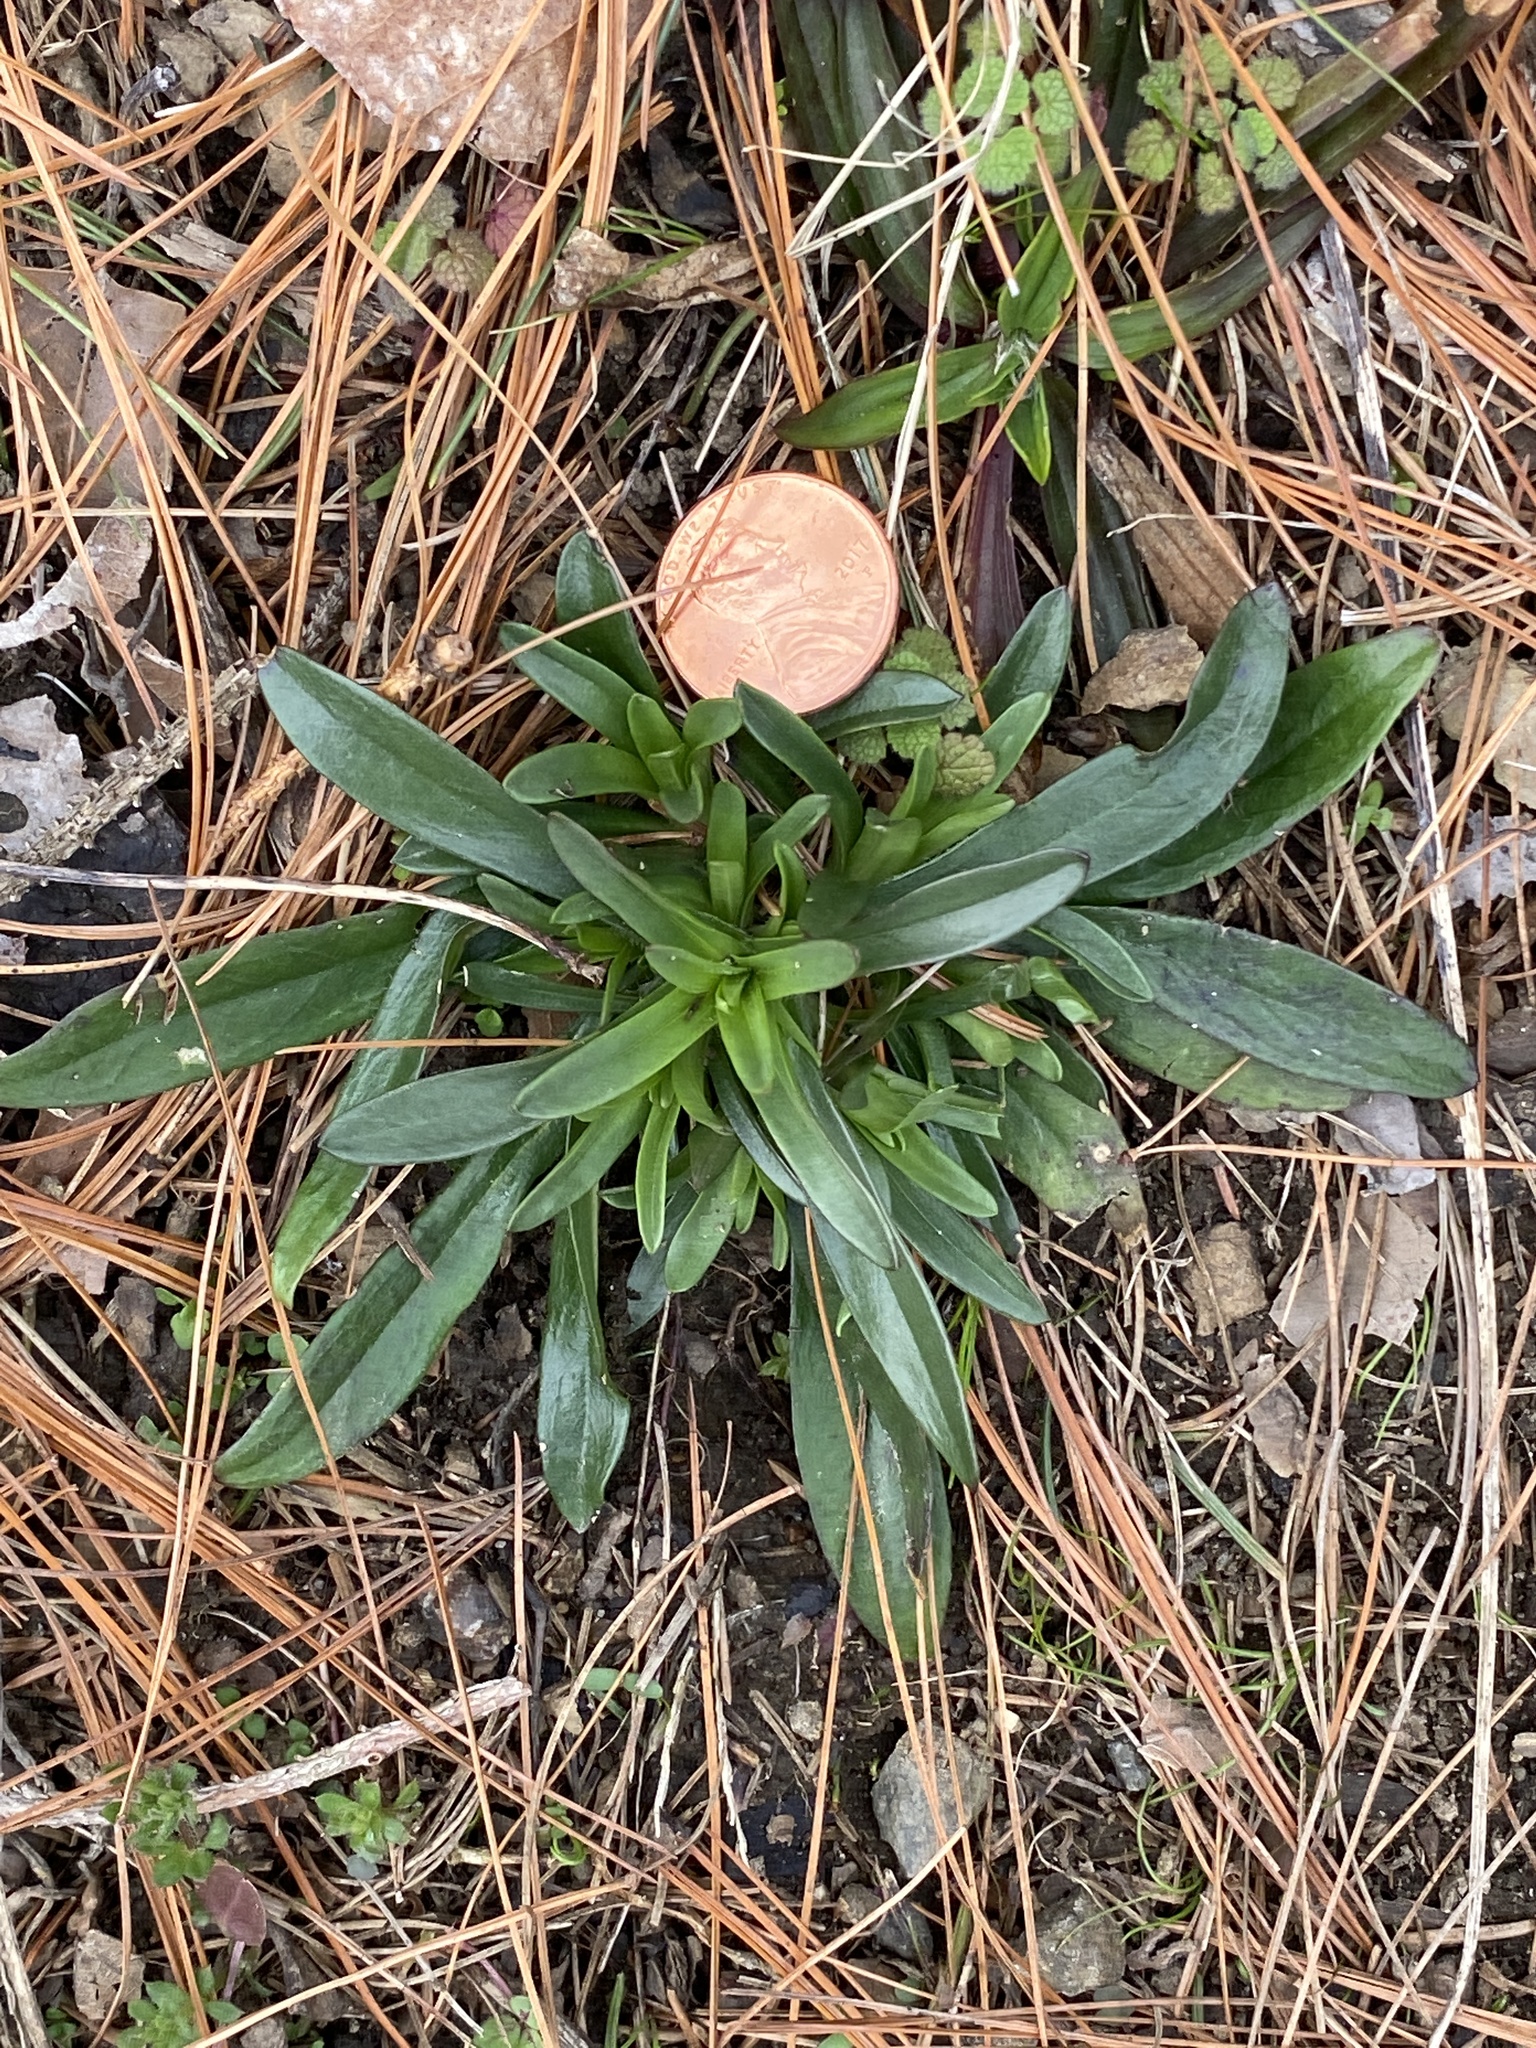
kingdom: Plantae
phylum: Tracheophyta
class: Magnoliopsida
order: Caryophyllales
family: Caryophyllaceae
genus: Dianthus
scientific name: Dianthus armeria
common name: Deptford pink
